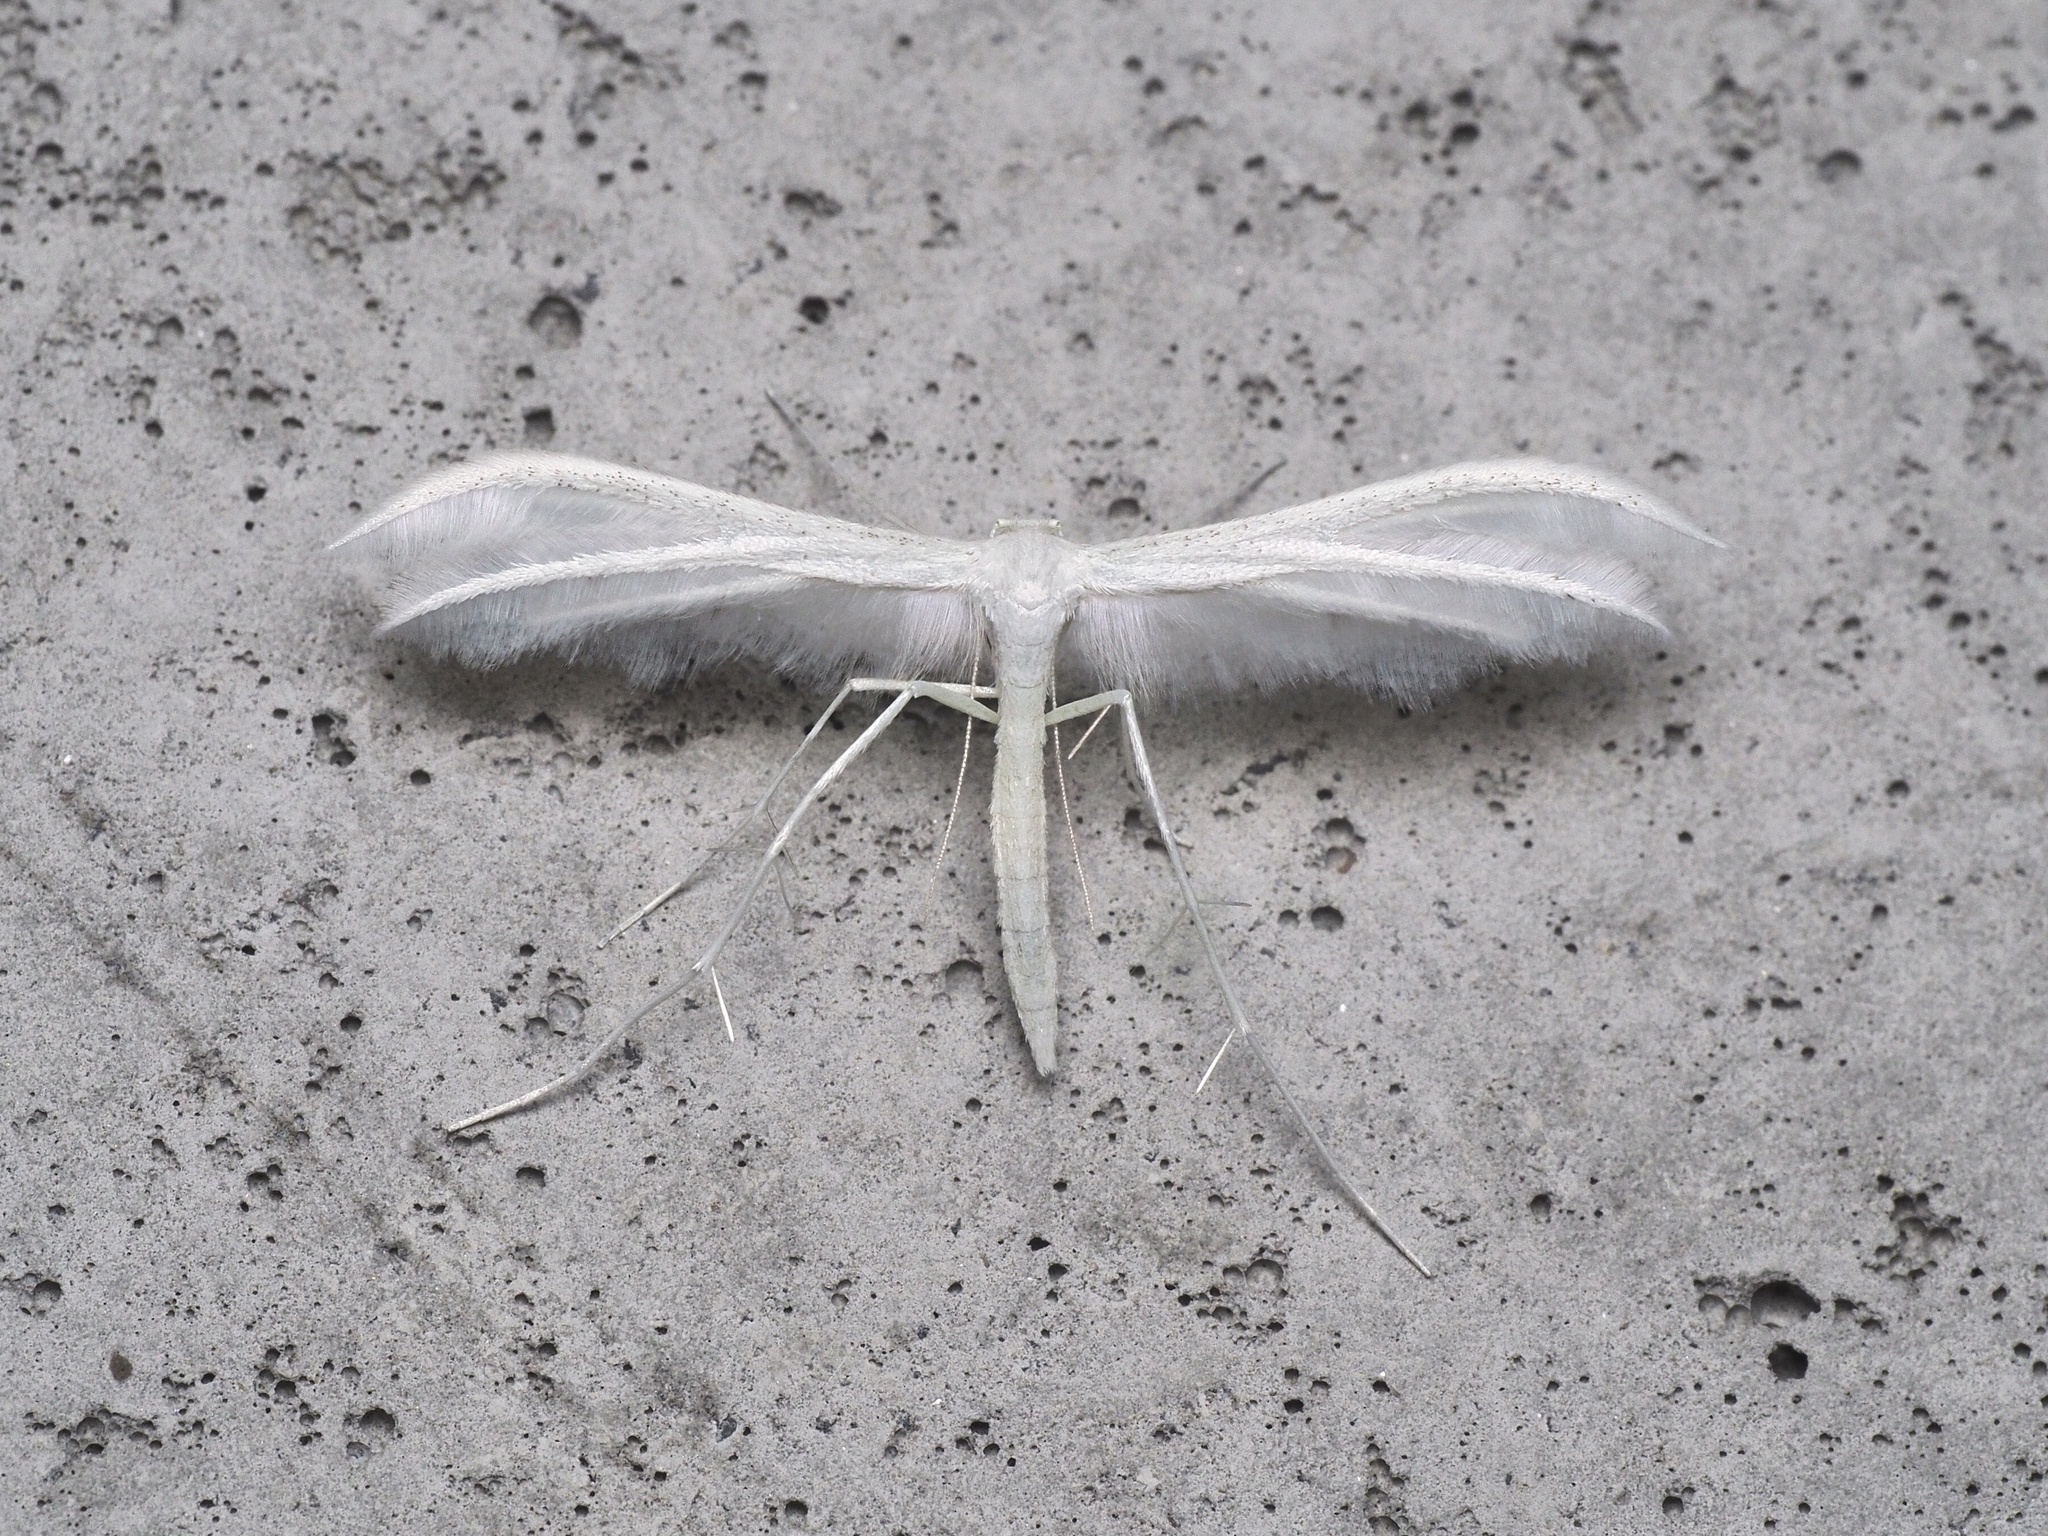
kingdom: Animalia
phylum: Arthropoda
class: Insecta
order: Lepidoptera
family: Pterophoridae
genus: Pterophorus
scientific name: Pterophorus pentadactyla
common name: White plume moth
